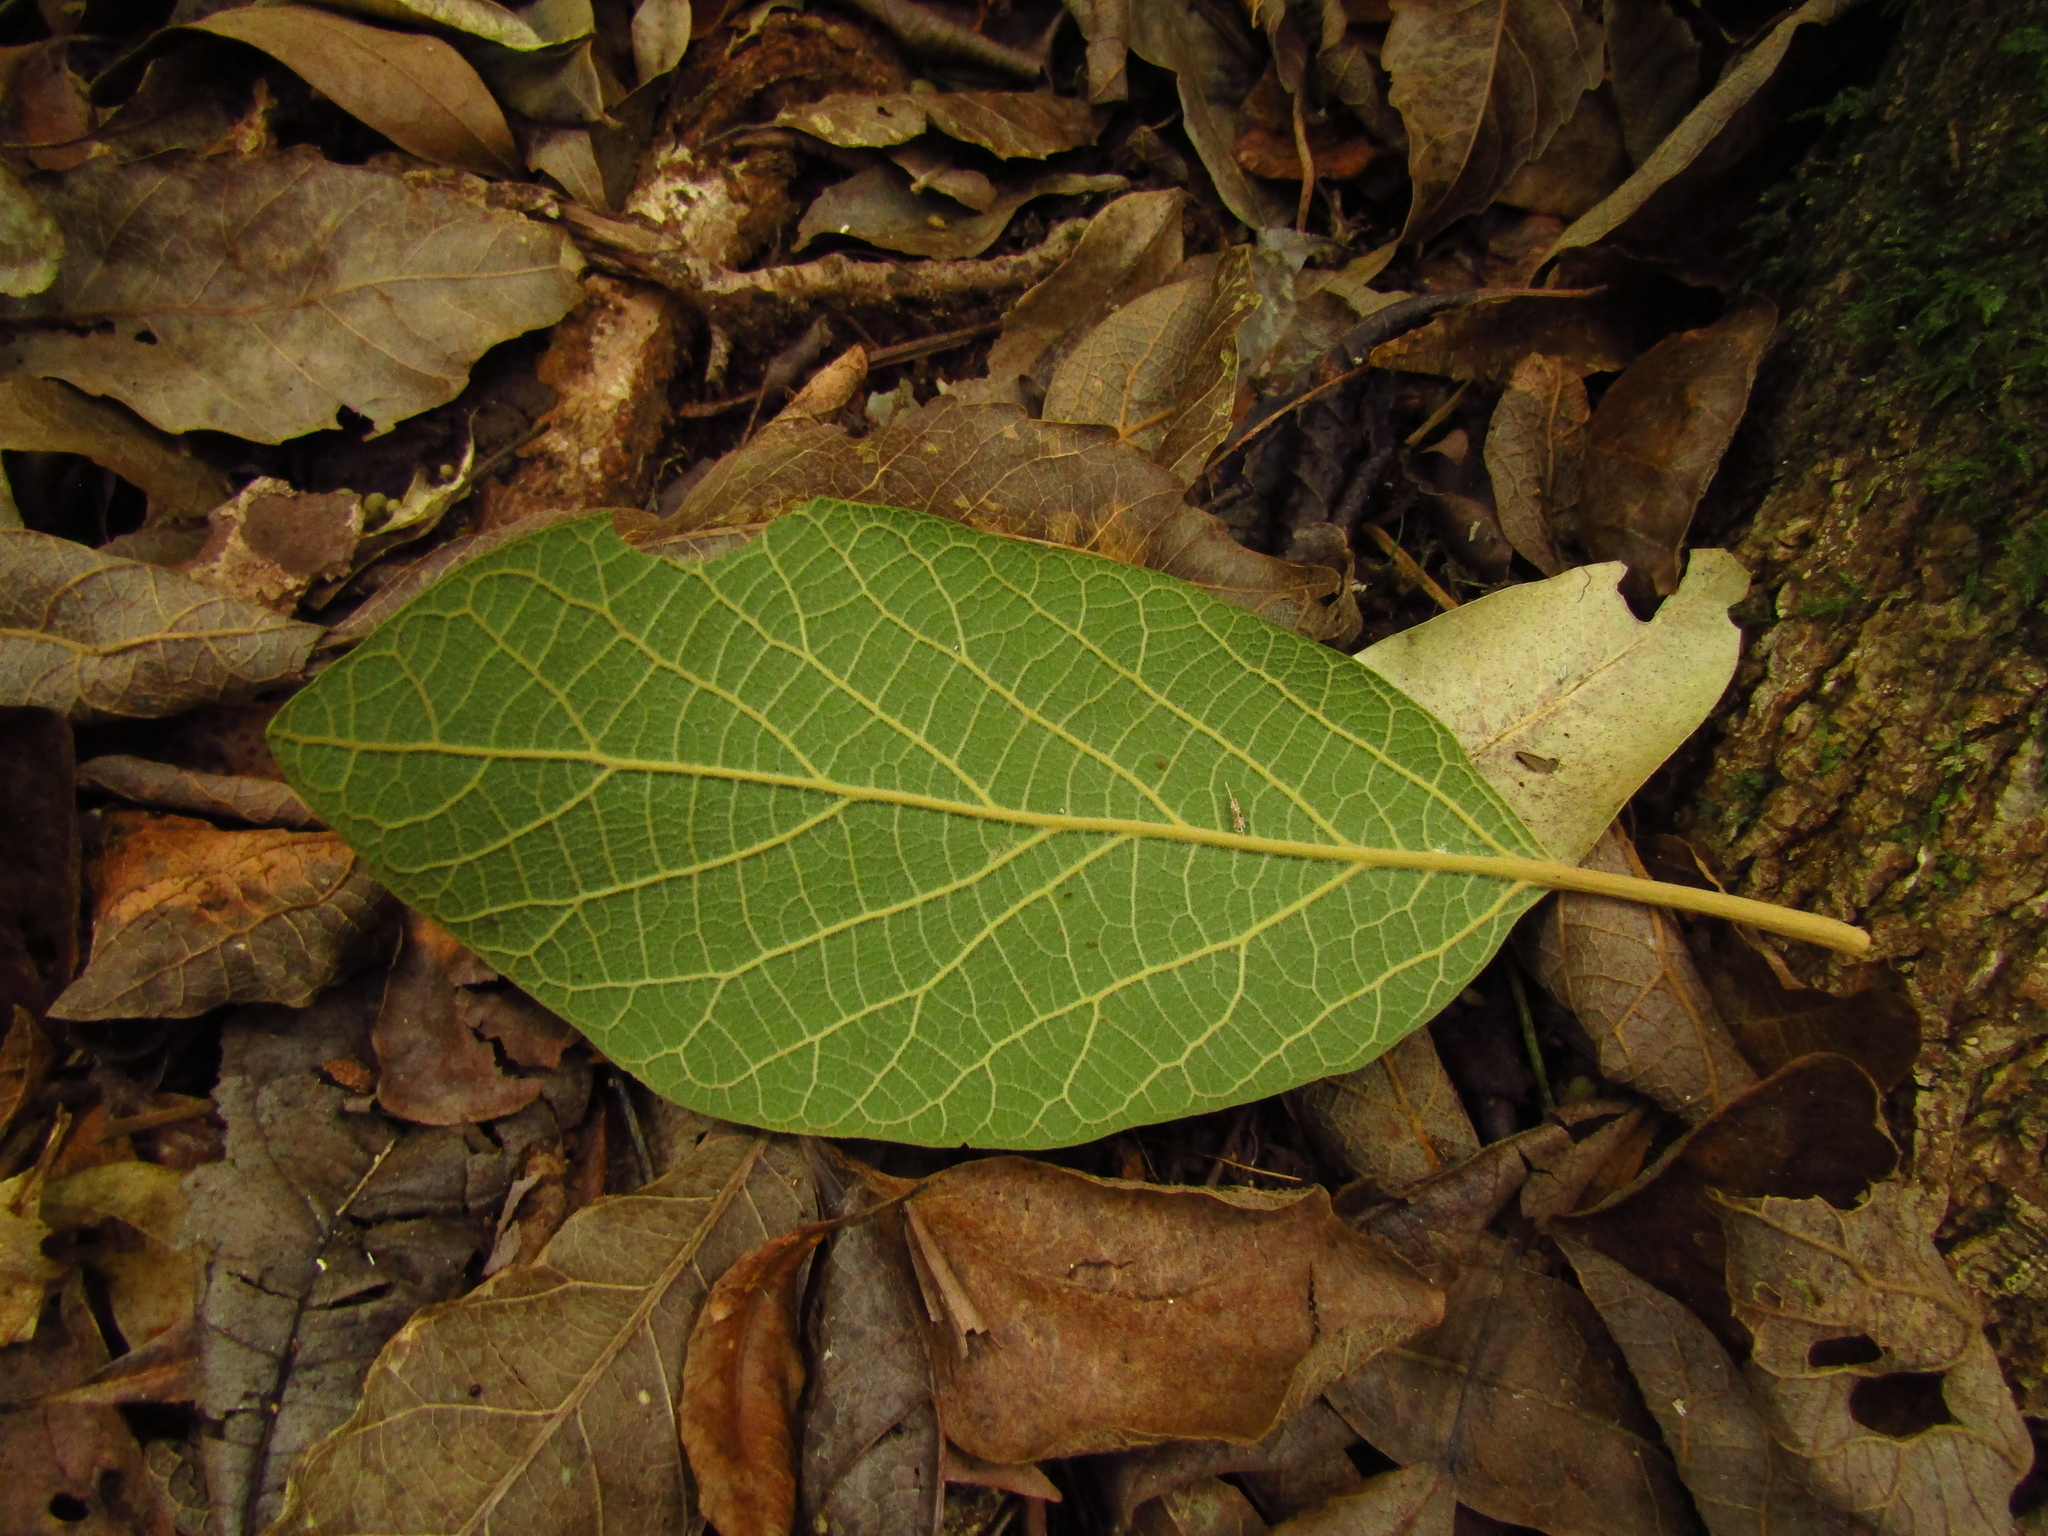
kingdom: Plantae
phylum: Tracheophyta
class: Magnoliopsida
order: Lamiales
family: Lamiaceae
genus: Gmelina
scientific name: Gmelina leichhardtii
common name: Queensland-beech
